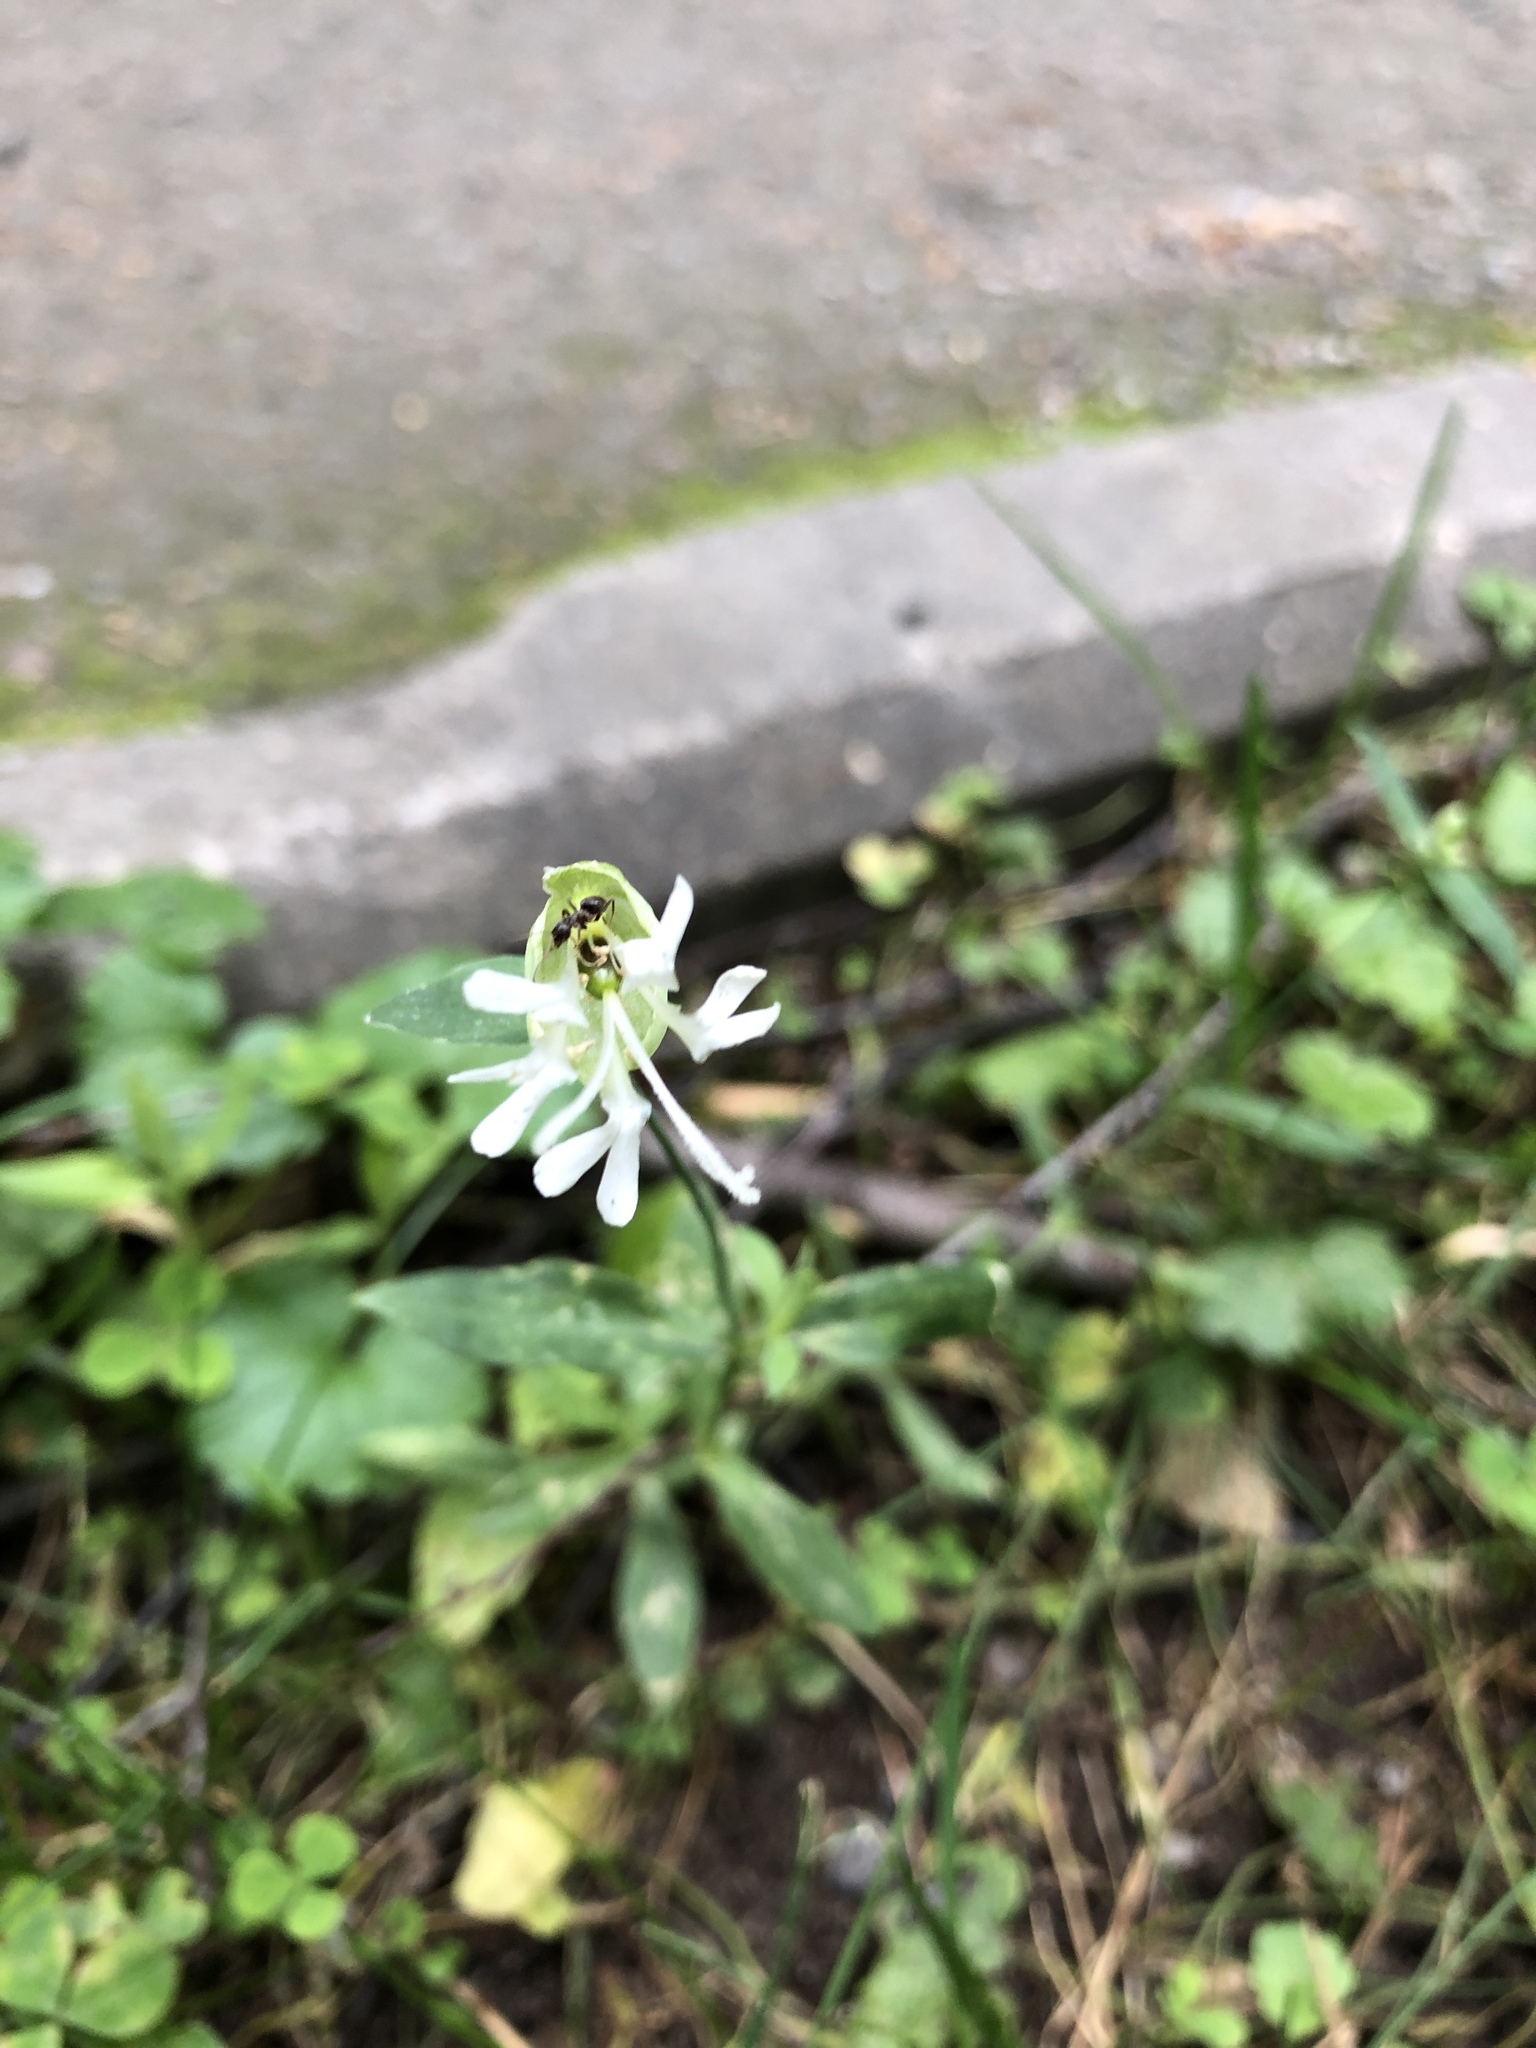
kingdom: Plantae
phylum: Tracheophyta
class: Magnoliopsida
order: Caryophyllales
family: Caryophyllaceae
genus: Silene
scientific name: Silene vulgaris
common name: Bladder campion
